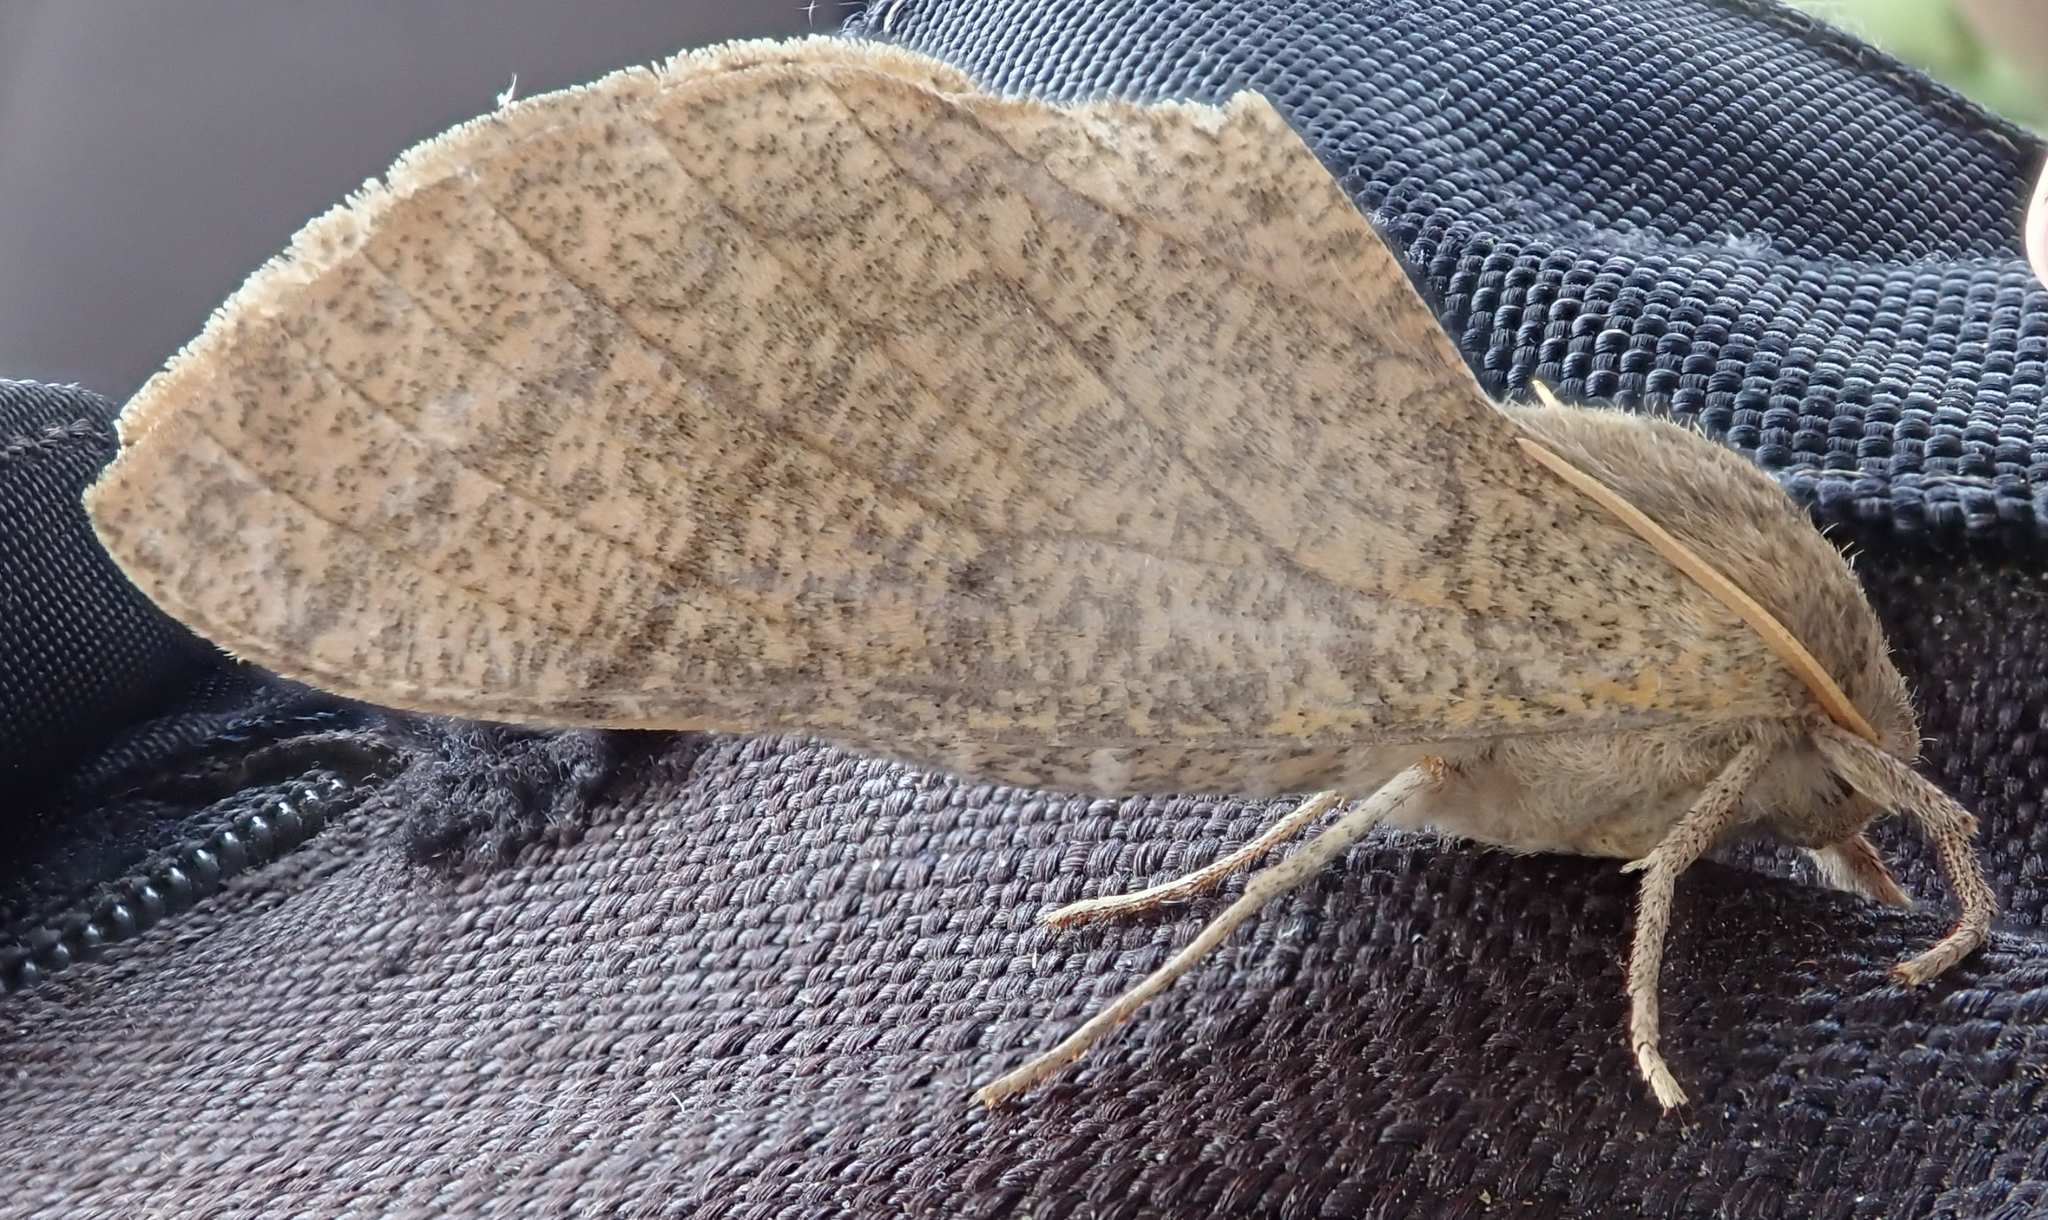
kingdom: Animalia
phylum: Arthropoda
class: Insecta
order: Lepidoptera
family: Sphingidae
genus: Neoclanis
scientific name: Neoclanis basalis
